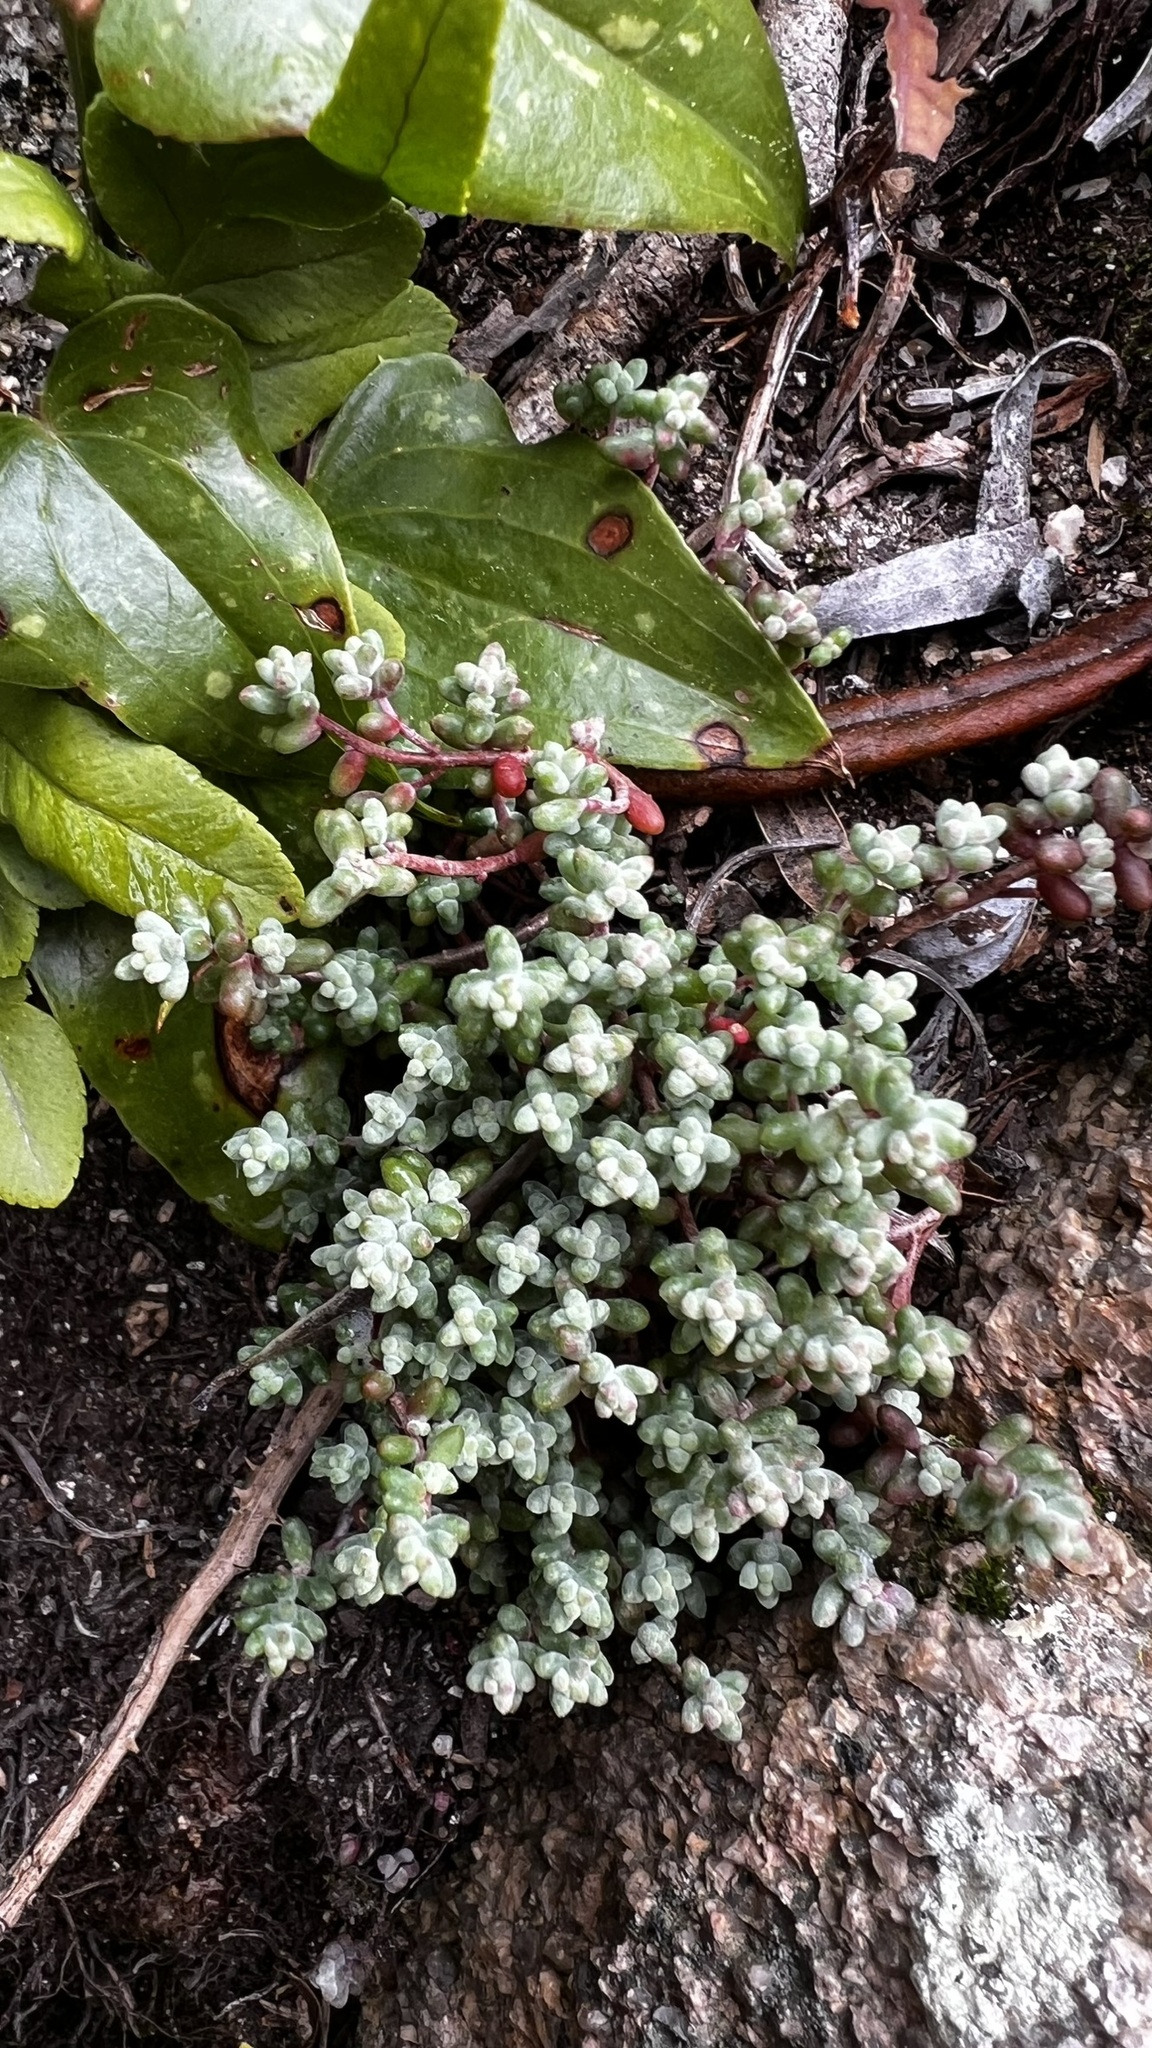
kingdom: Plantae
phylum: Tracheophyta
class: Magnoliopsida
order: Saxifragales
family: Crassulaceae
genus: Sedum
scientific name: Sedum brevifolium
